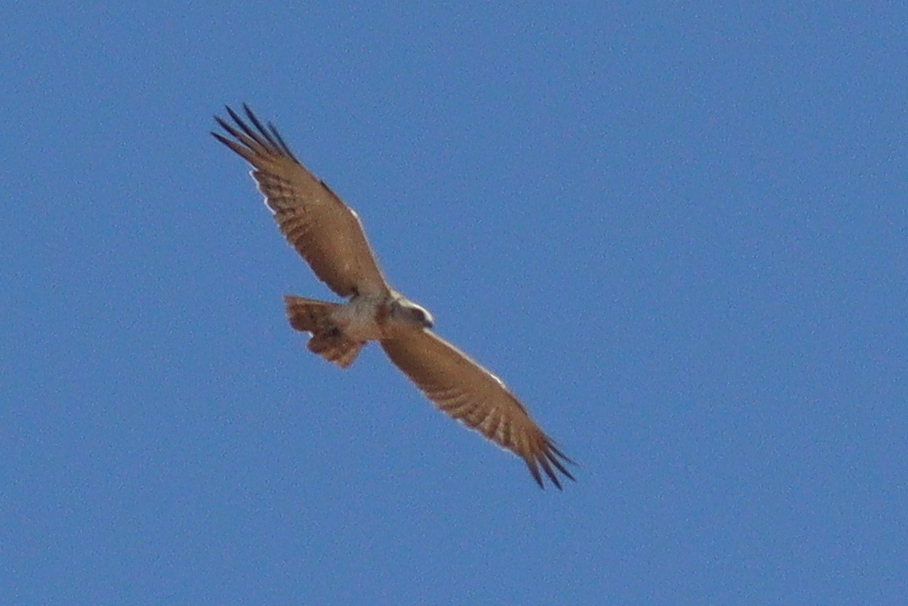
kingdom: Animalia
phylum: Chordata
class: Aves
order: Accipitriformes
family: Accipitridae
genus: Circaetus
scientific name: Circaetus pectoralis
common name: Black-chested snake eagle
